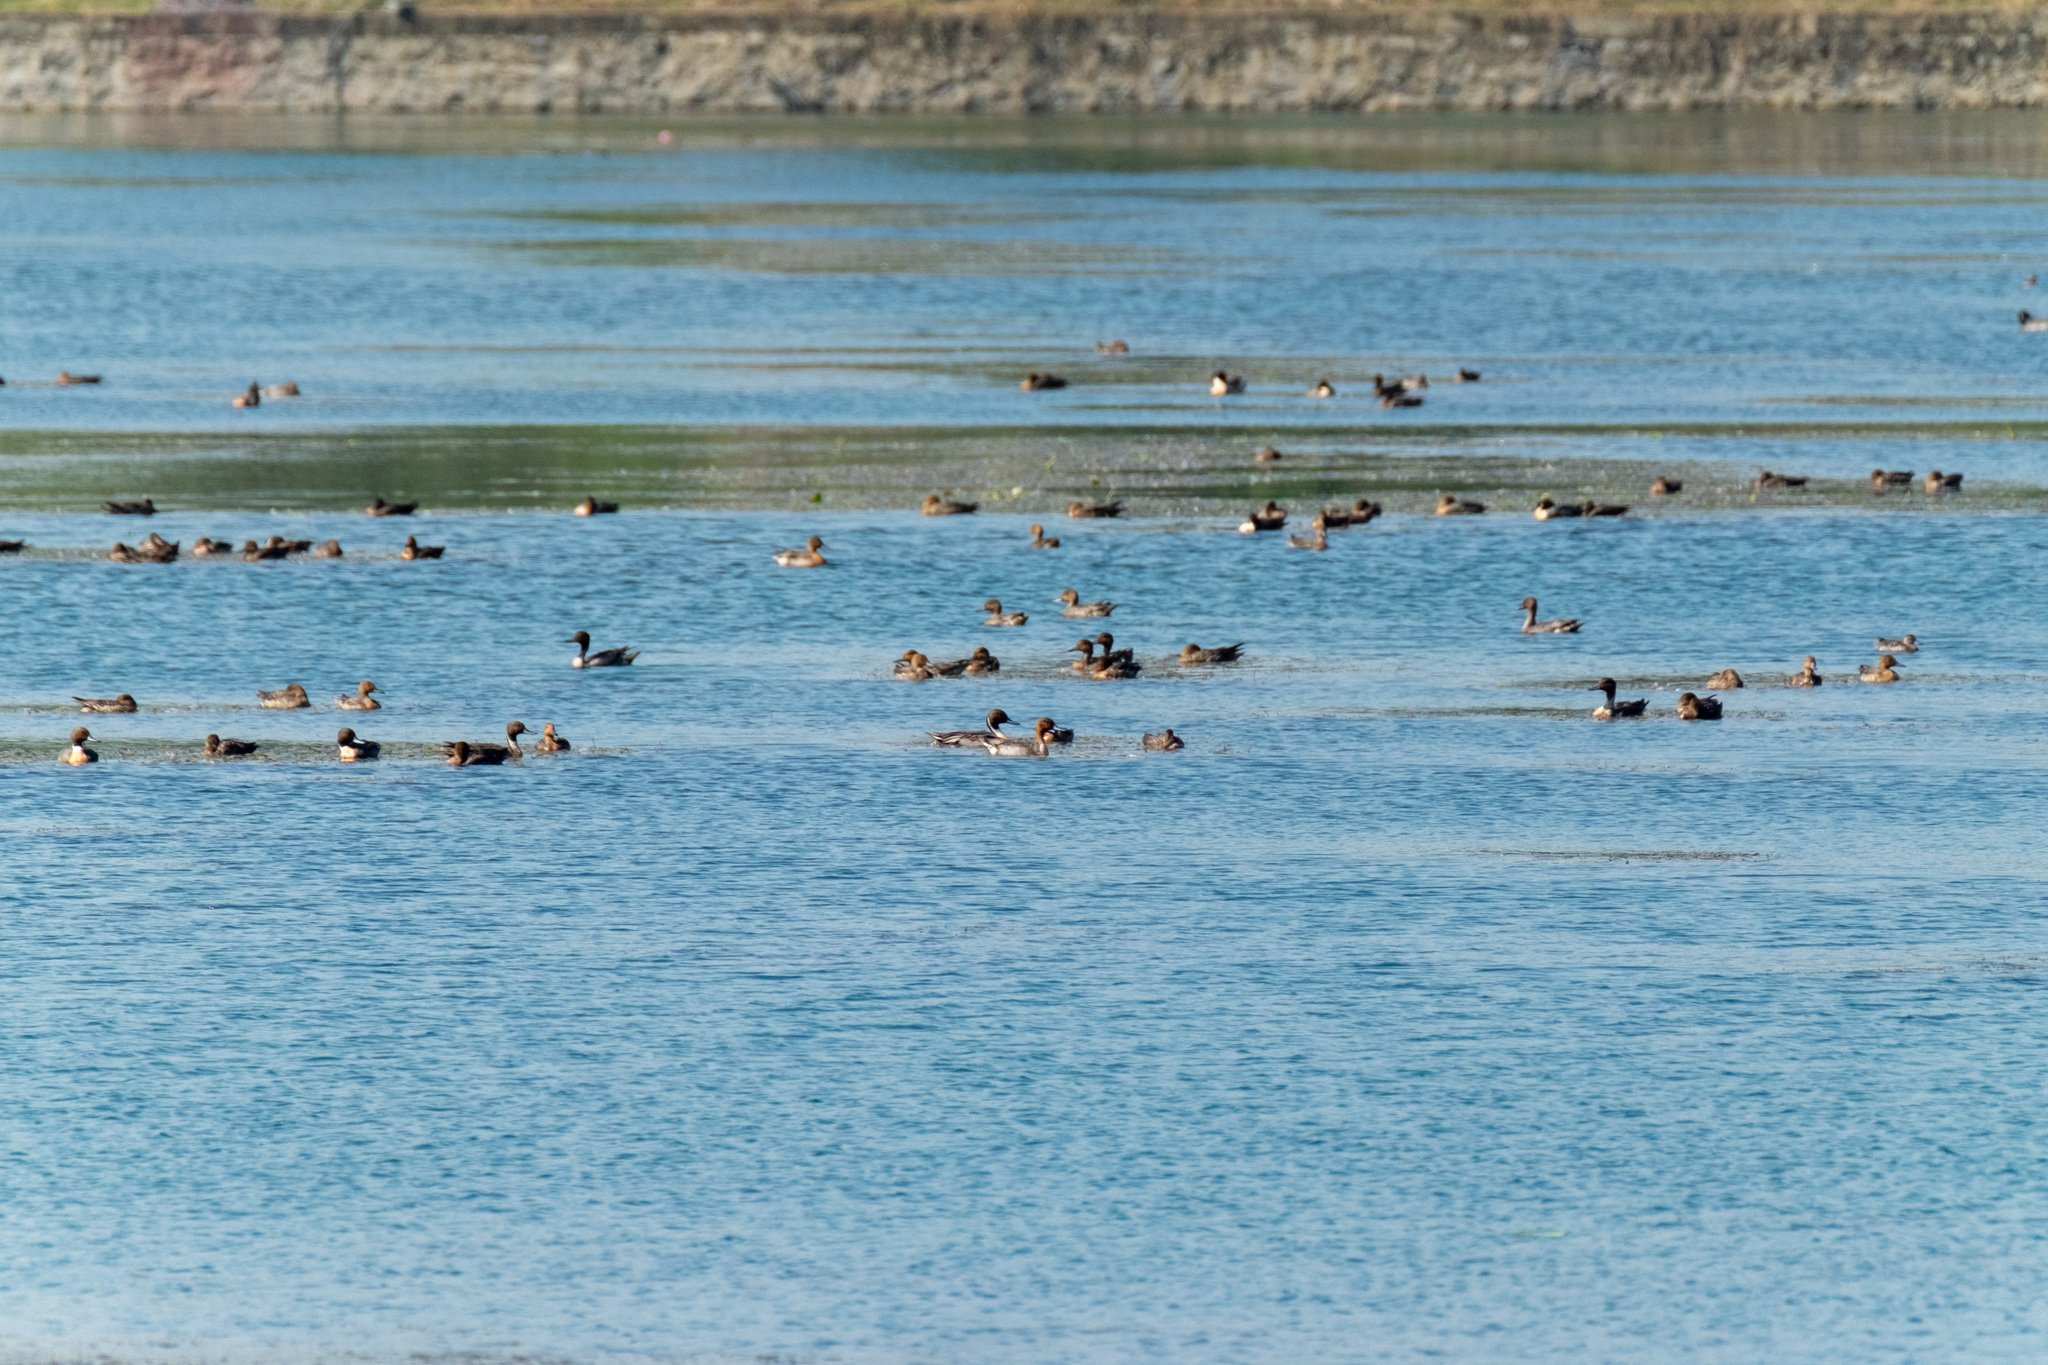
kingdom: Animalia
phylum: Chordata
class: Aves
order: Anseriformes
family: Anatidae
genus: Anas
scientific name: Anas acuta
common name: Northern pintail
